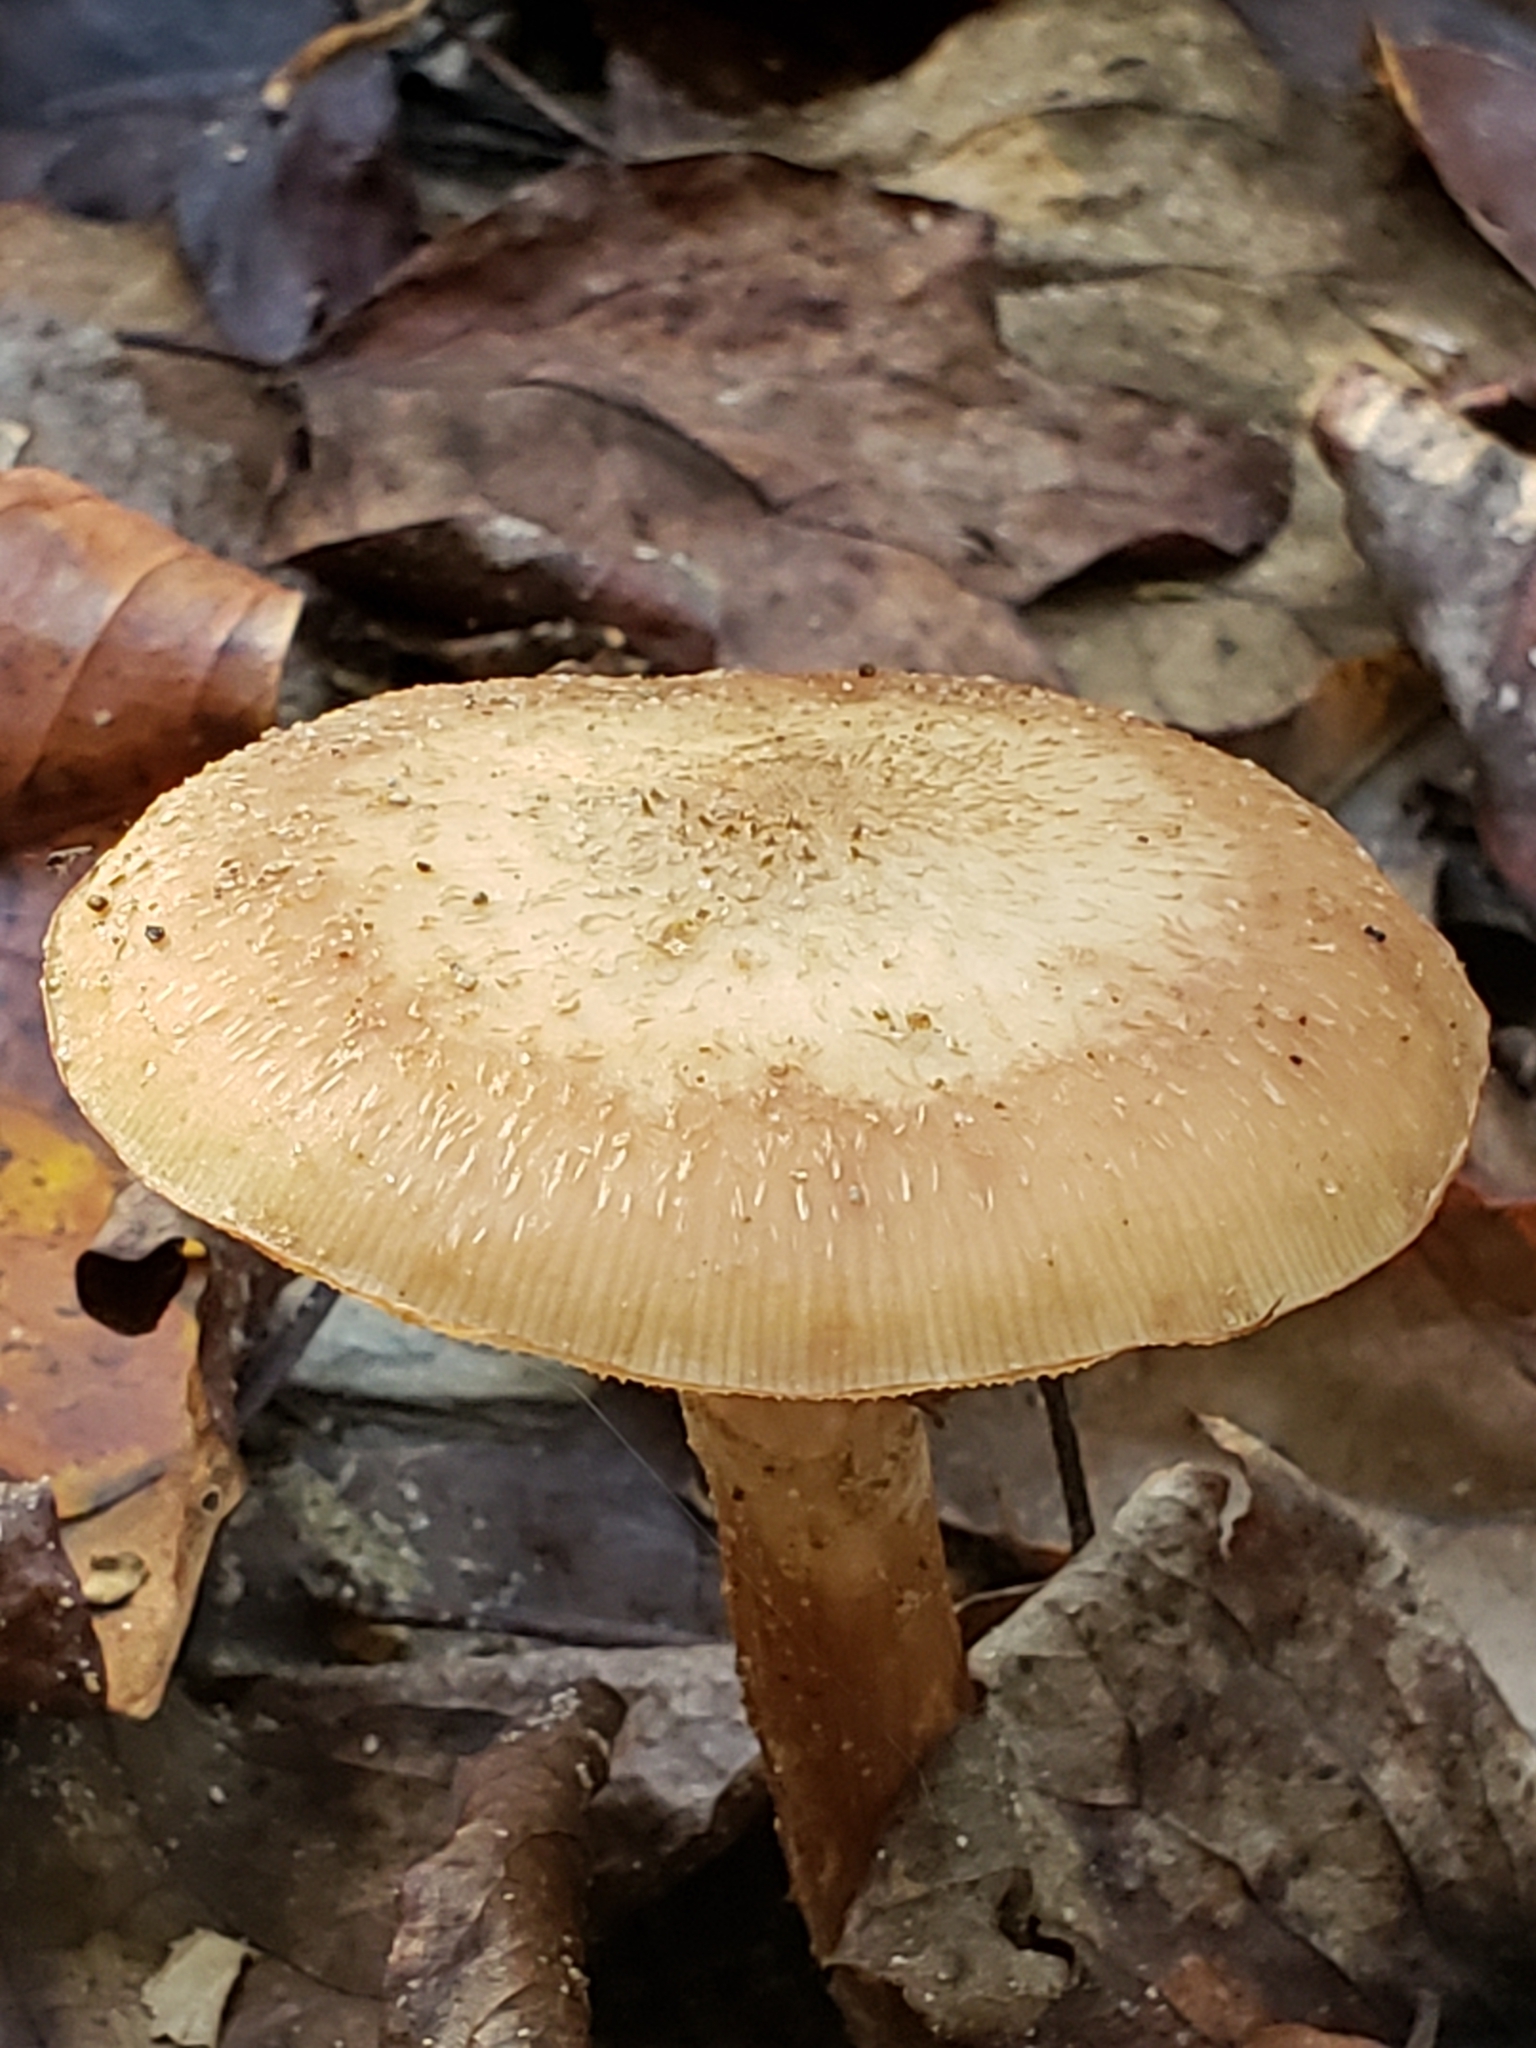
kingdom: Fungi
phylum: Basidiomycota
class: Agaricomycetes
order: Agaricales
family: Physalacriaceae
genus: Armillaria
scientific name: Armillaria mellea
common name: Honey fungus
